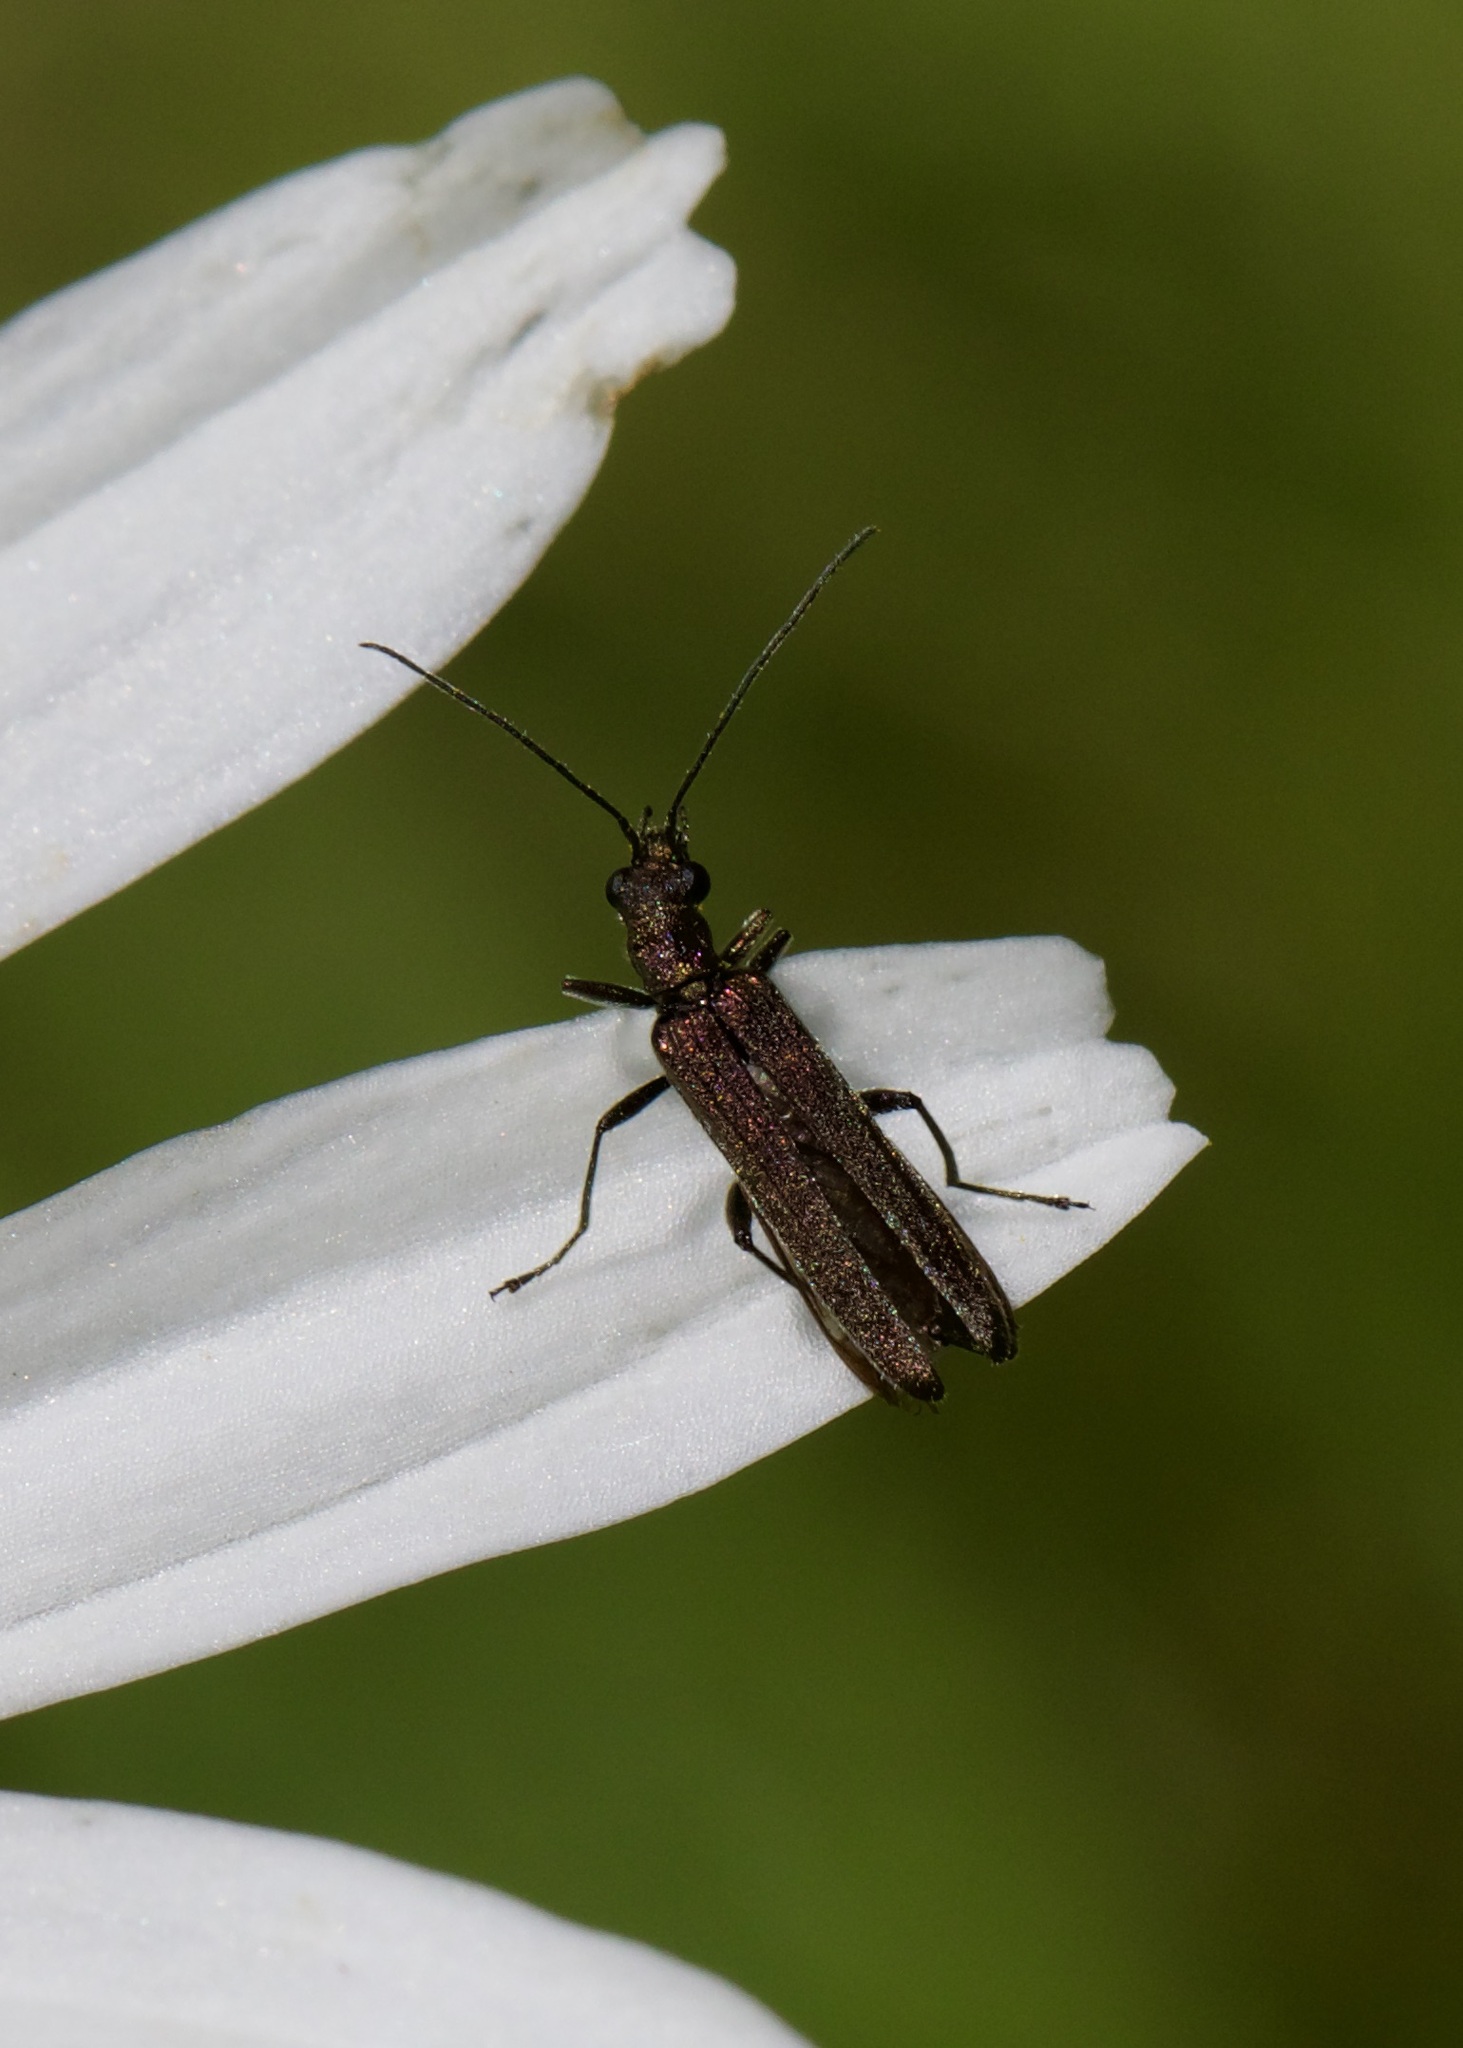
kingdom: Animalia
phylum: Arthropoda
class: Insecta
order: Coleoptera
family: Oedemeridae
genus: Oedemera
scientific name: Oedemera lurida
